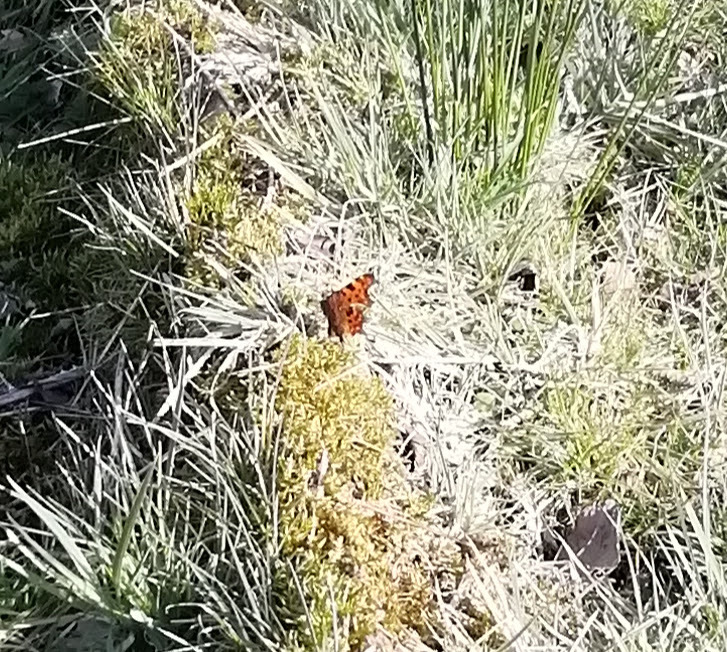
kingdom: Animalia
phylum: Arthropoda
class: Insecta
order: Lepidoptera
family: Nymphalidae
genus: Polygonia
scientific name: Polygonia c-album
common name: Comma
